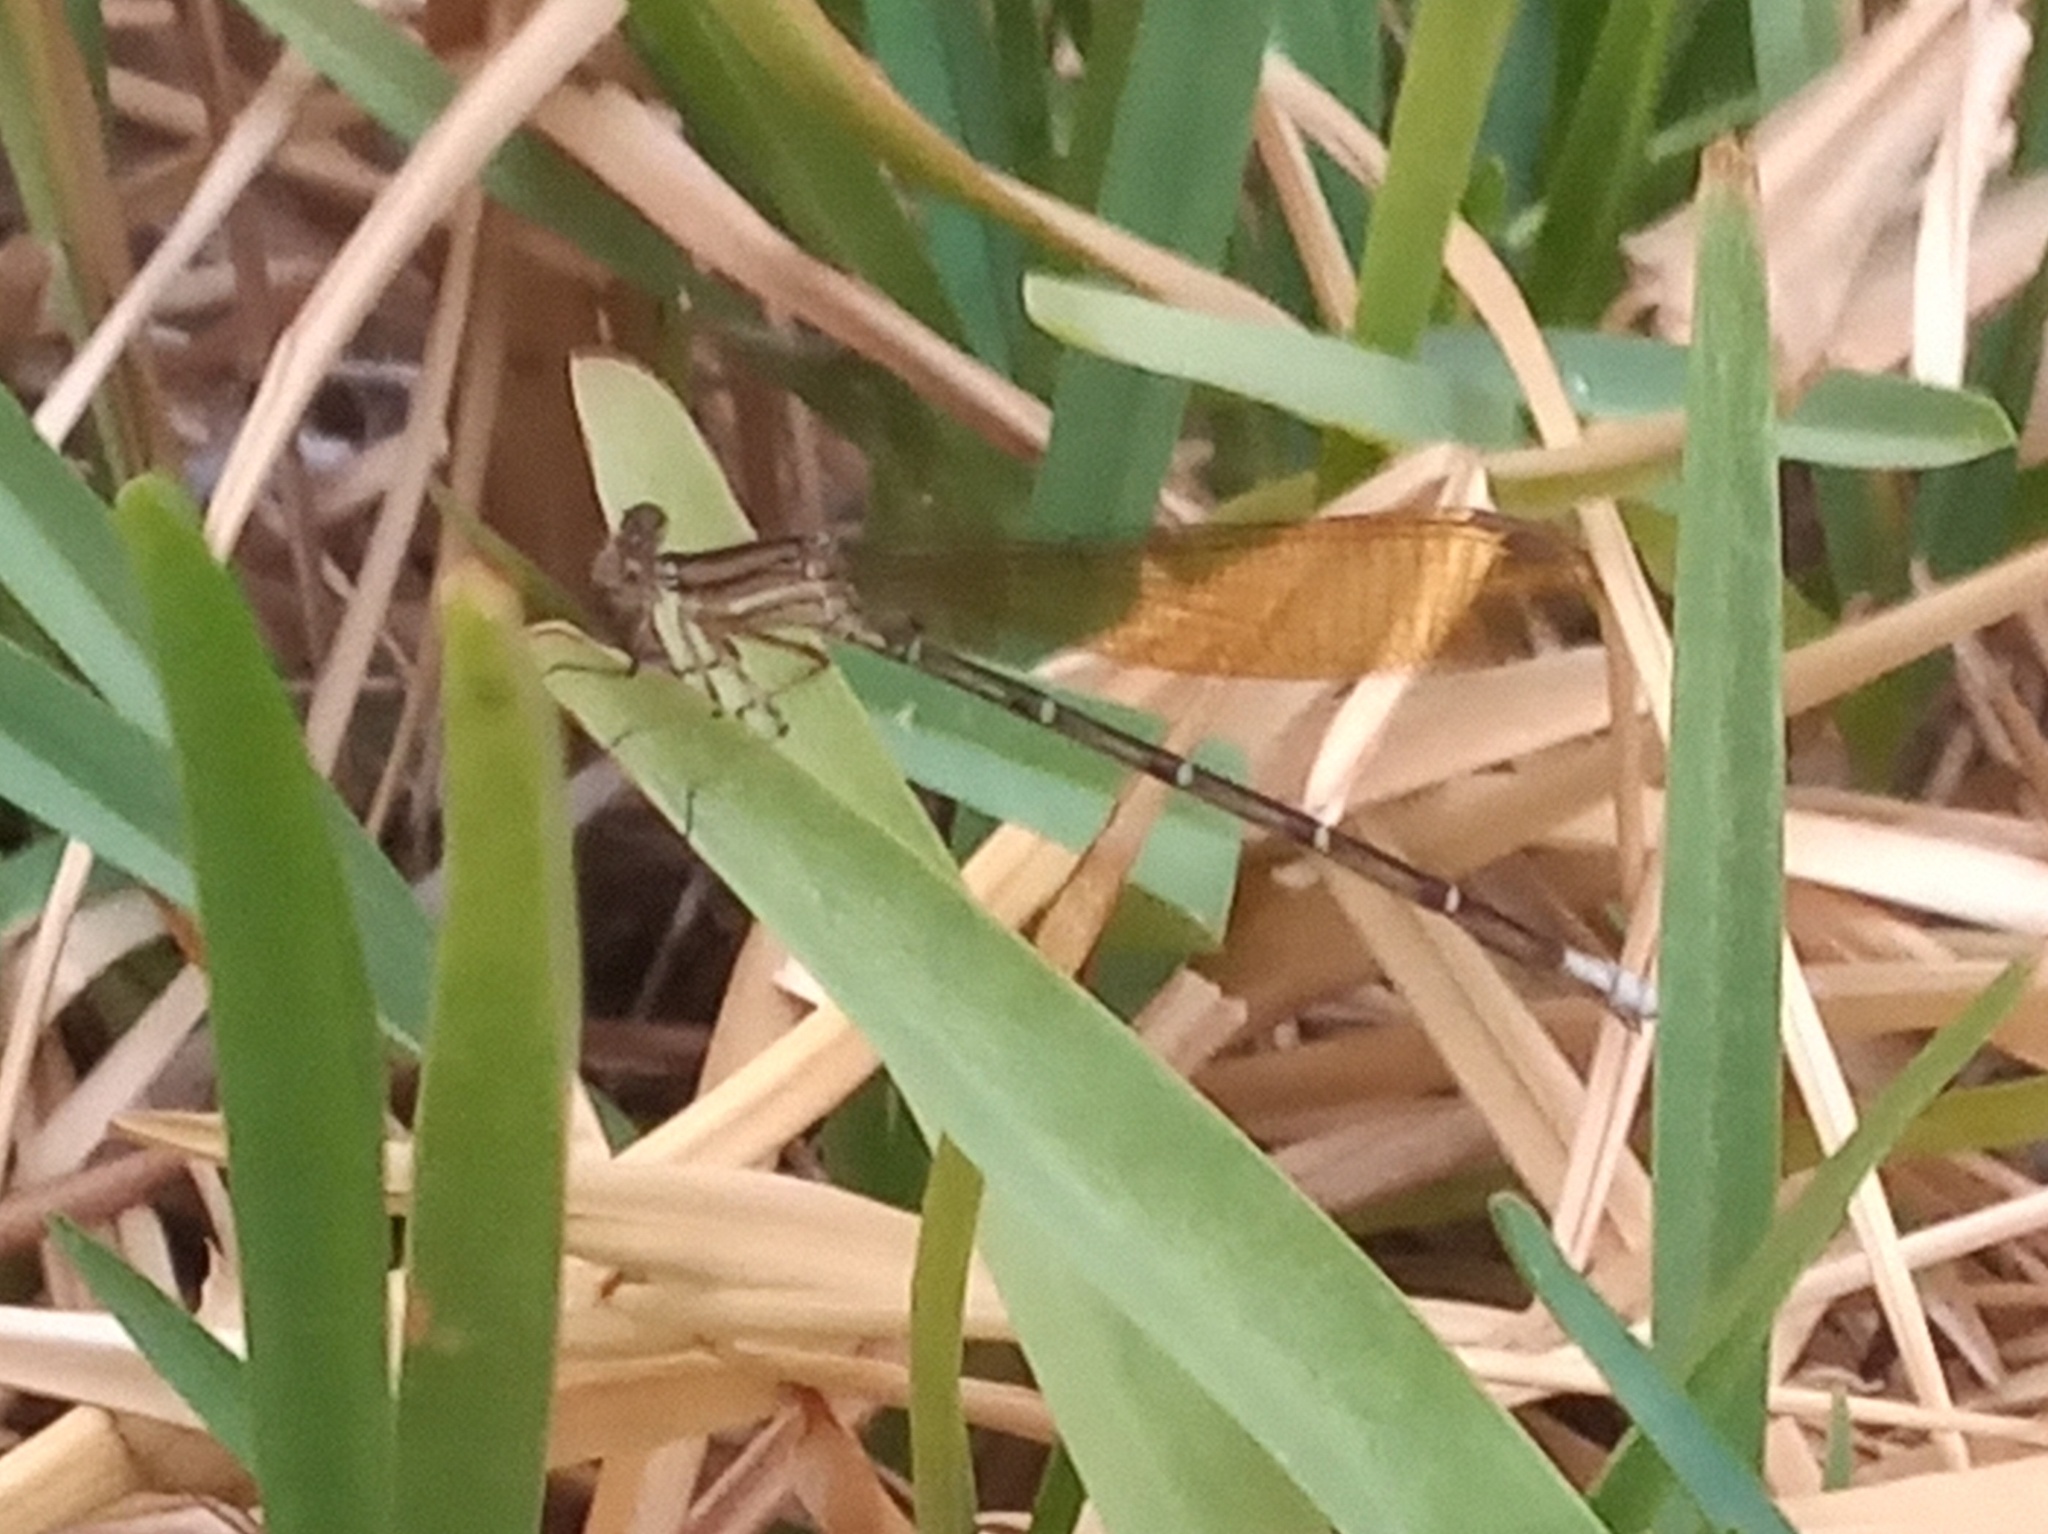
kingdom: Animalia
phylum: Arthropoda
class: Insecta
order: Odonata
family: Coenagrionidae
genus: Argia
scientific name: Argia rhoadsi
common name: Golden-winged dancer
